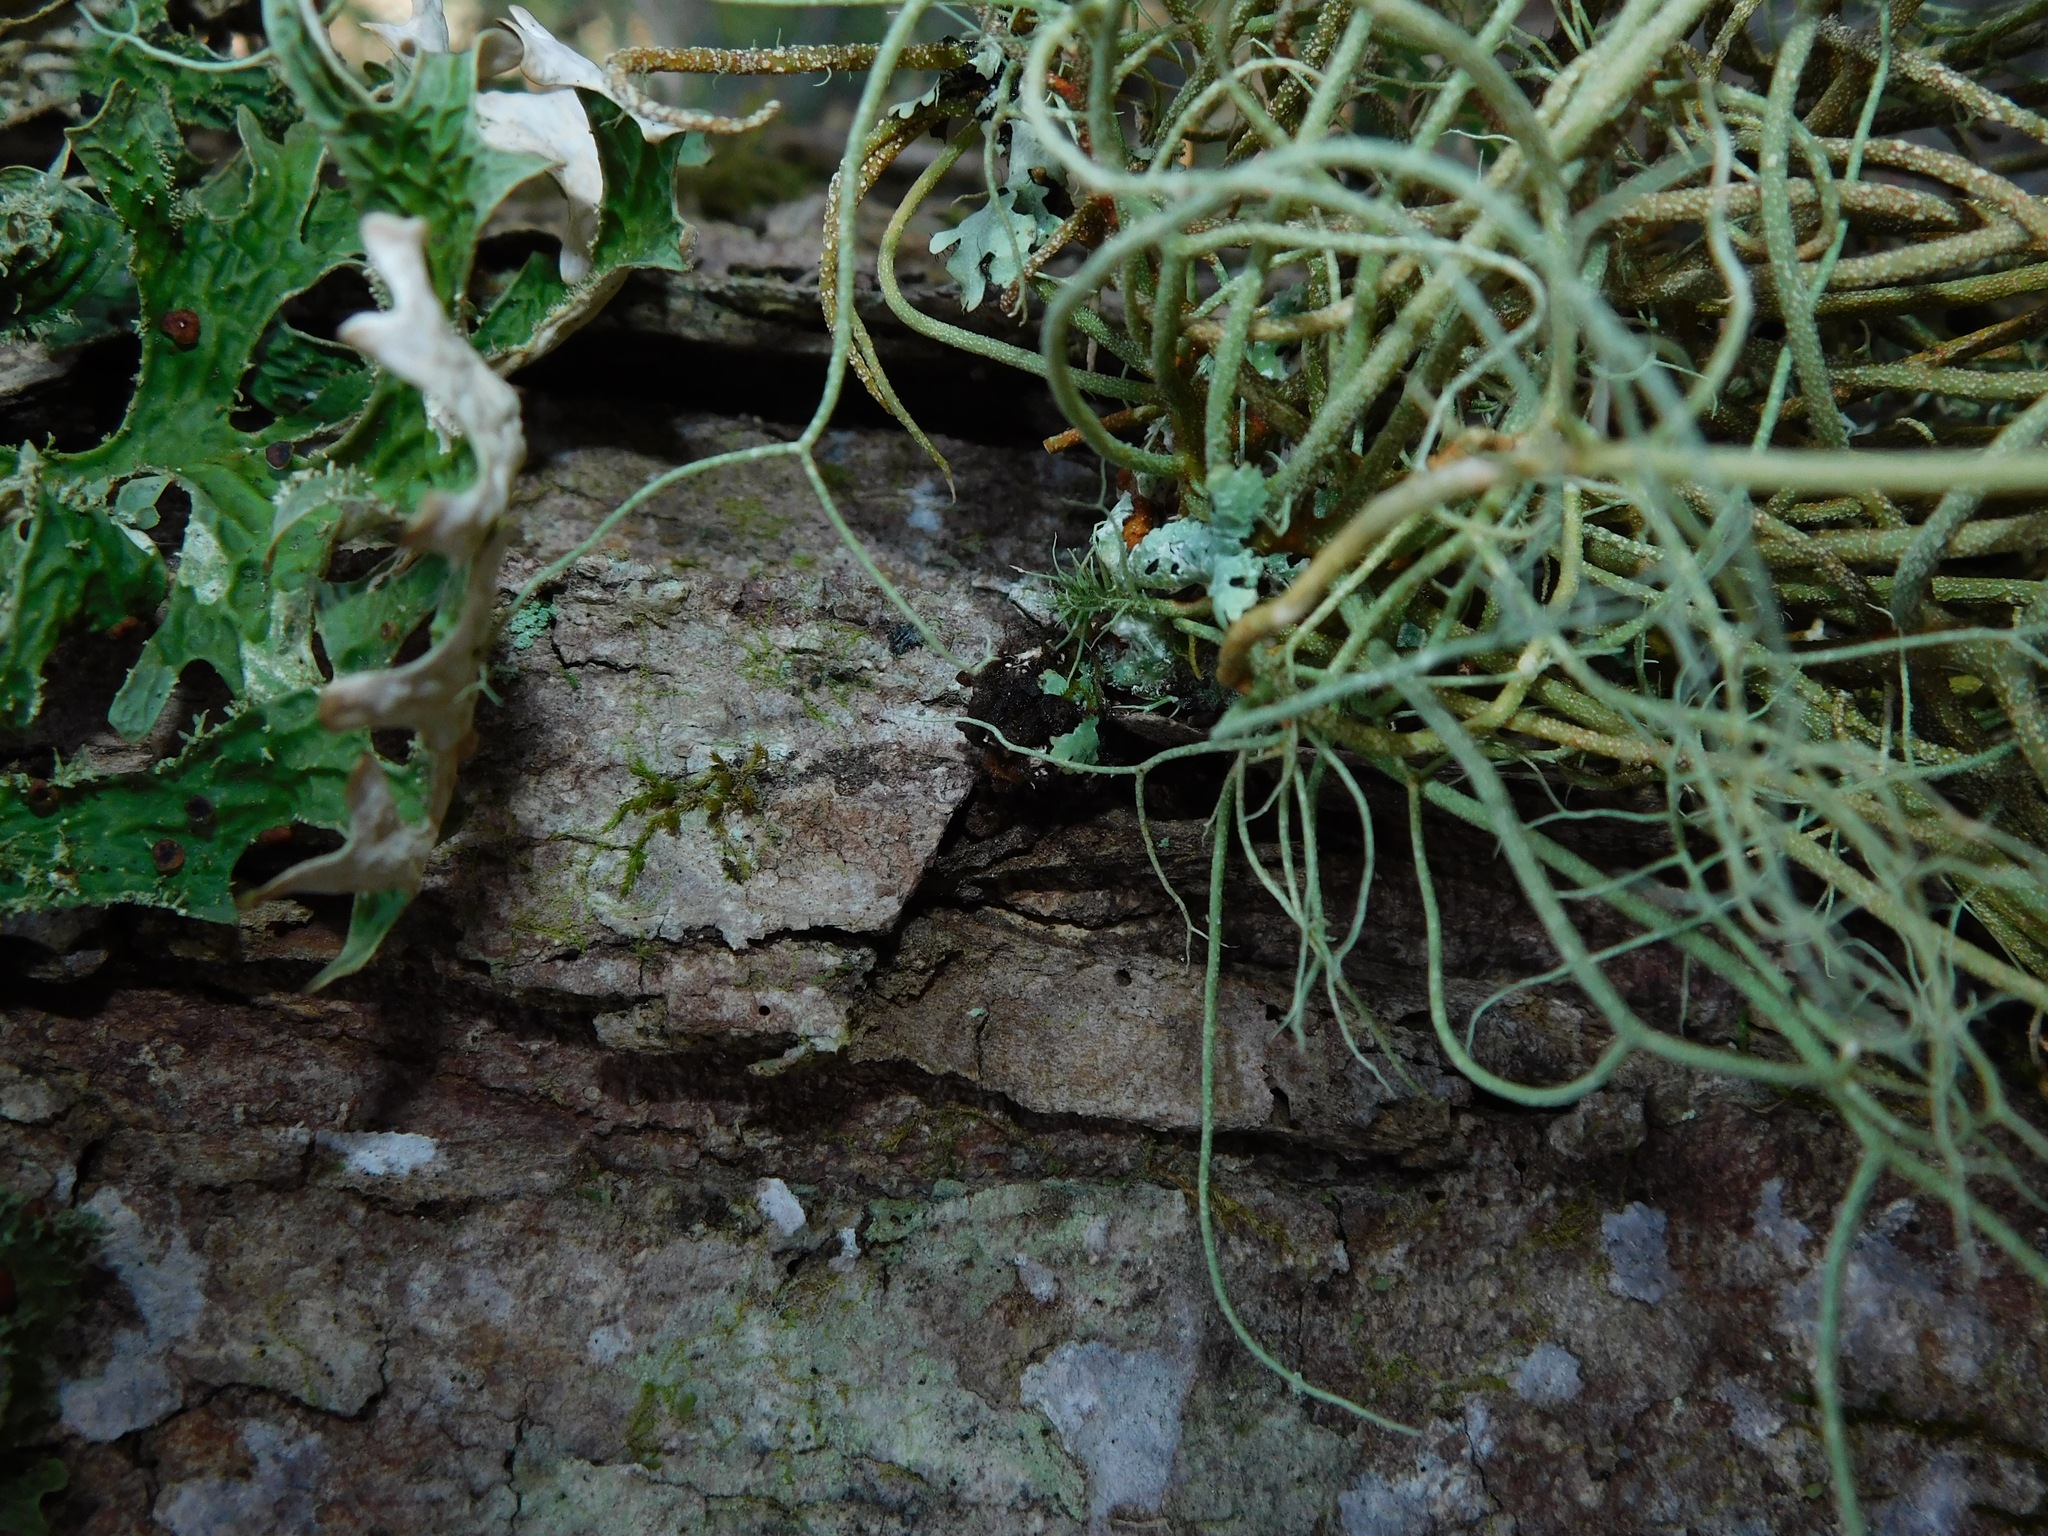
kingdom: Fungi
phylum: Ascomycota
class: Lecanoromycetes
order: Lecanorales
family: Parmeliaceae
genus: Usnea
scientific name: Usnea rubicunda
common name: Red beard lichen
